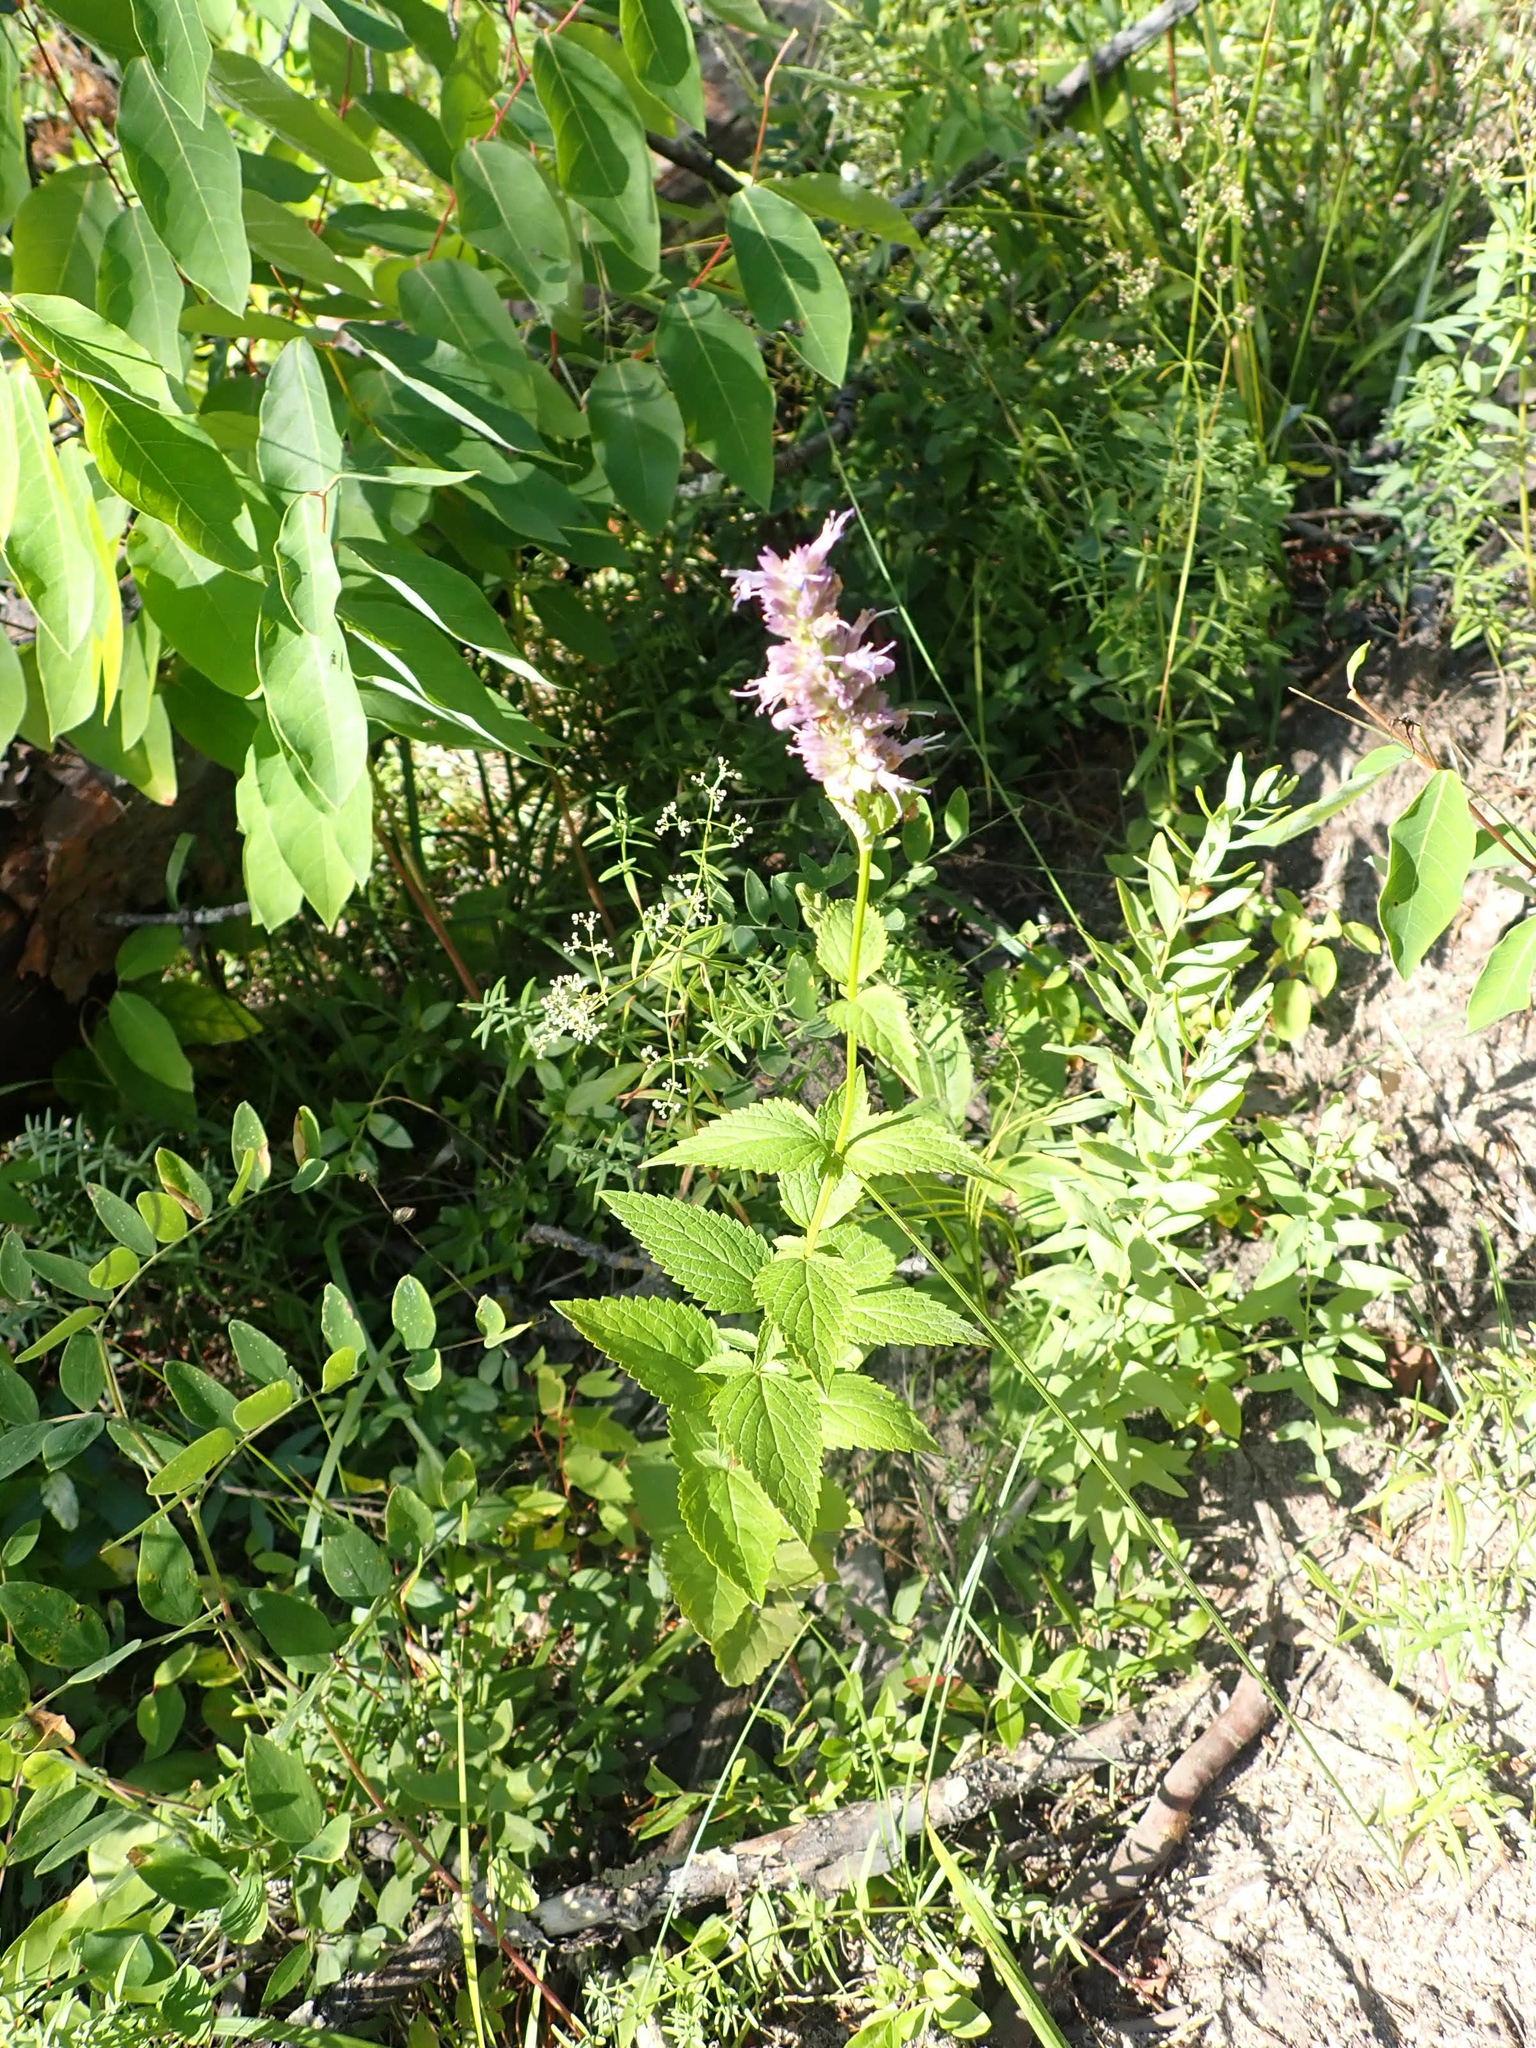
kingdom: Plantae
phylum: Tracheophyta
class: Magnoliopsida
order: Lamiales
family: Lamiaceae
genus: Agastache
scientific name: Agastache foeniculum
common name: Anise hyssop
